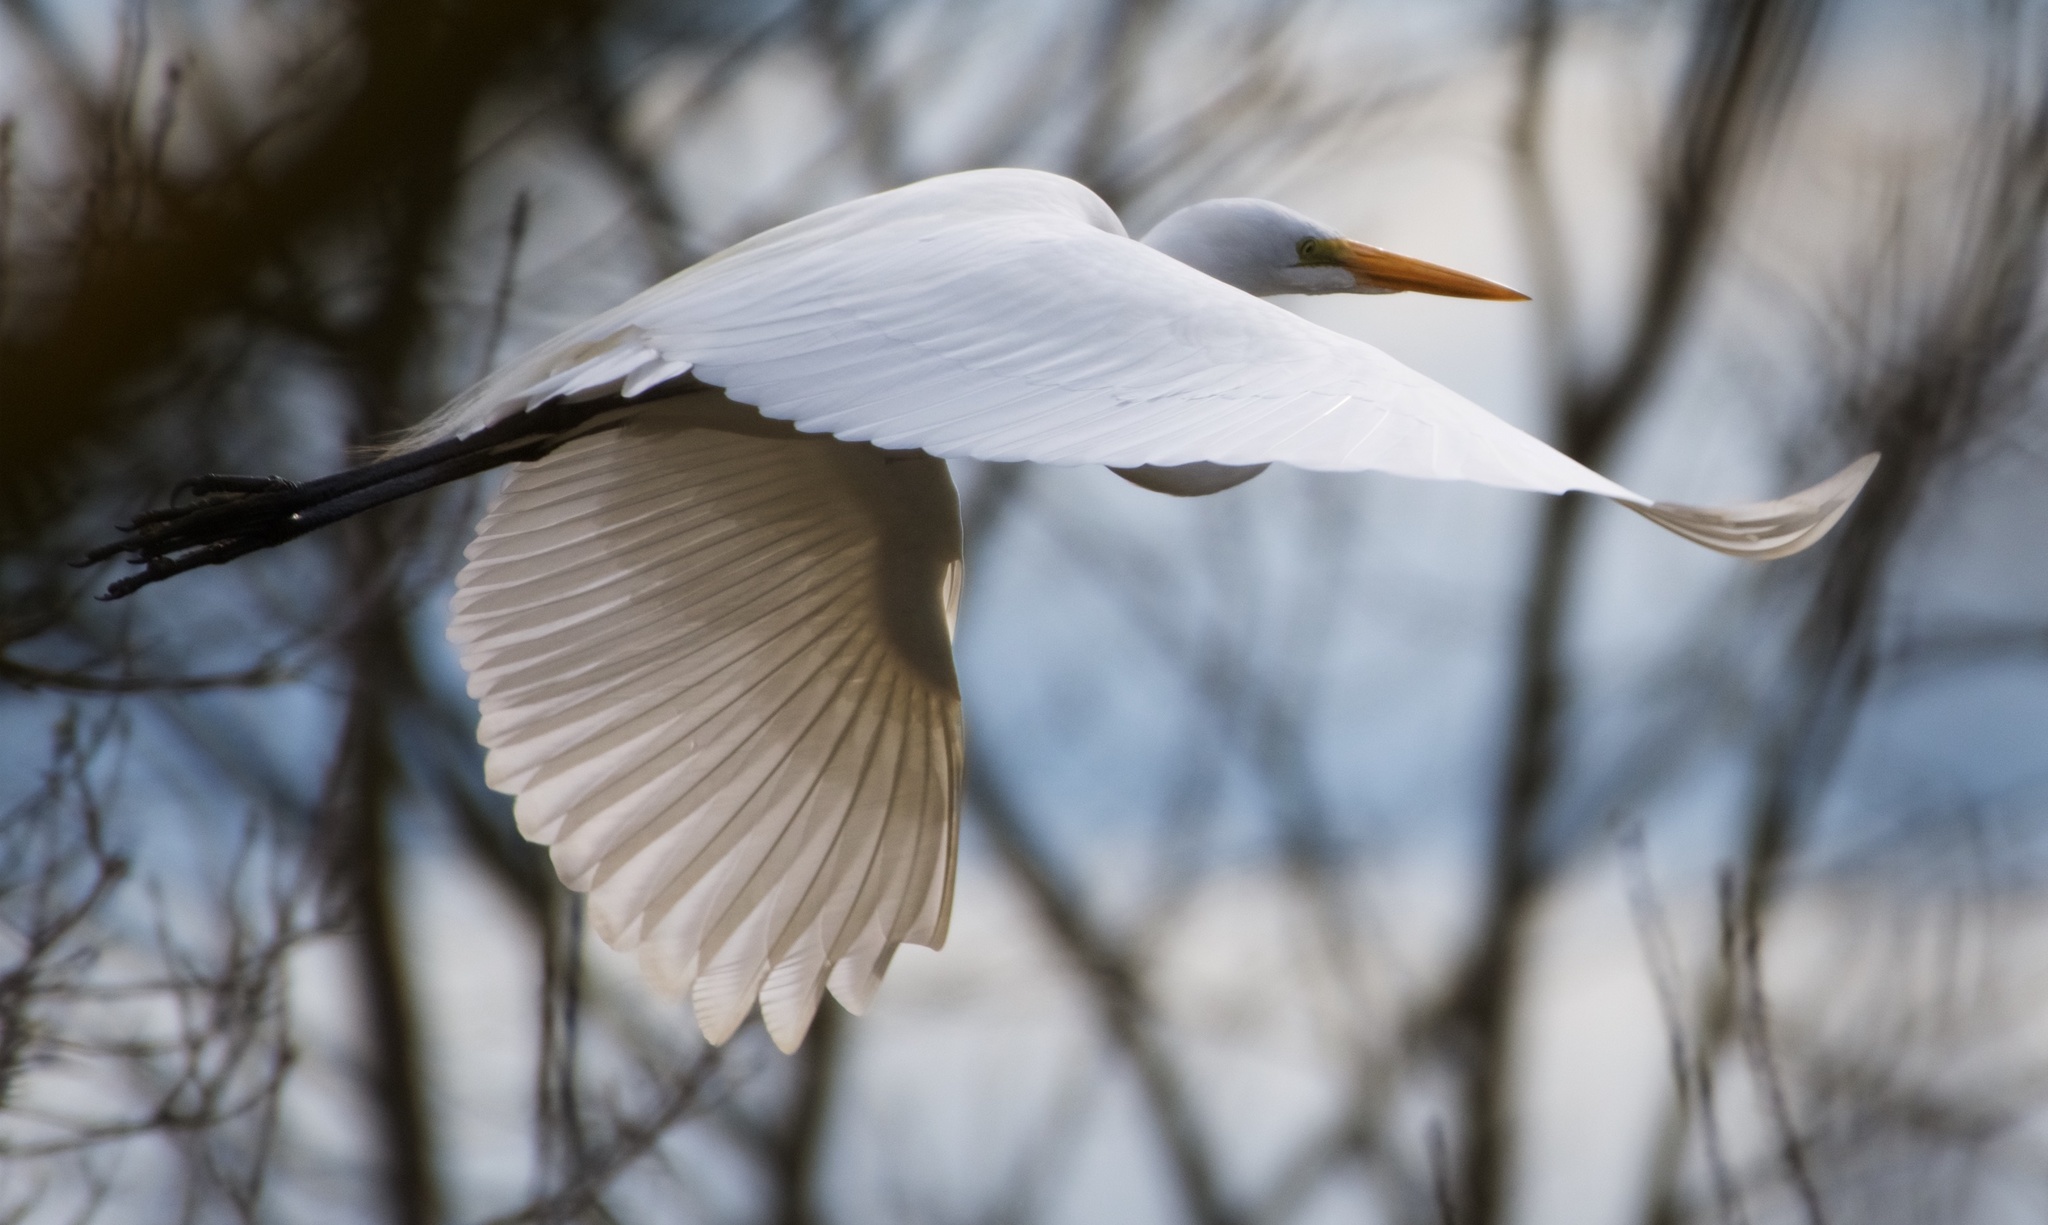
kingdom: Animalia
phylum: Chordata
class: Aves
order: Pelecaniformes
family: Ardeidae
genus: Ardea
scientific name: Ardea alba
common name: Great egret
